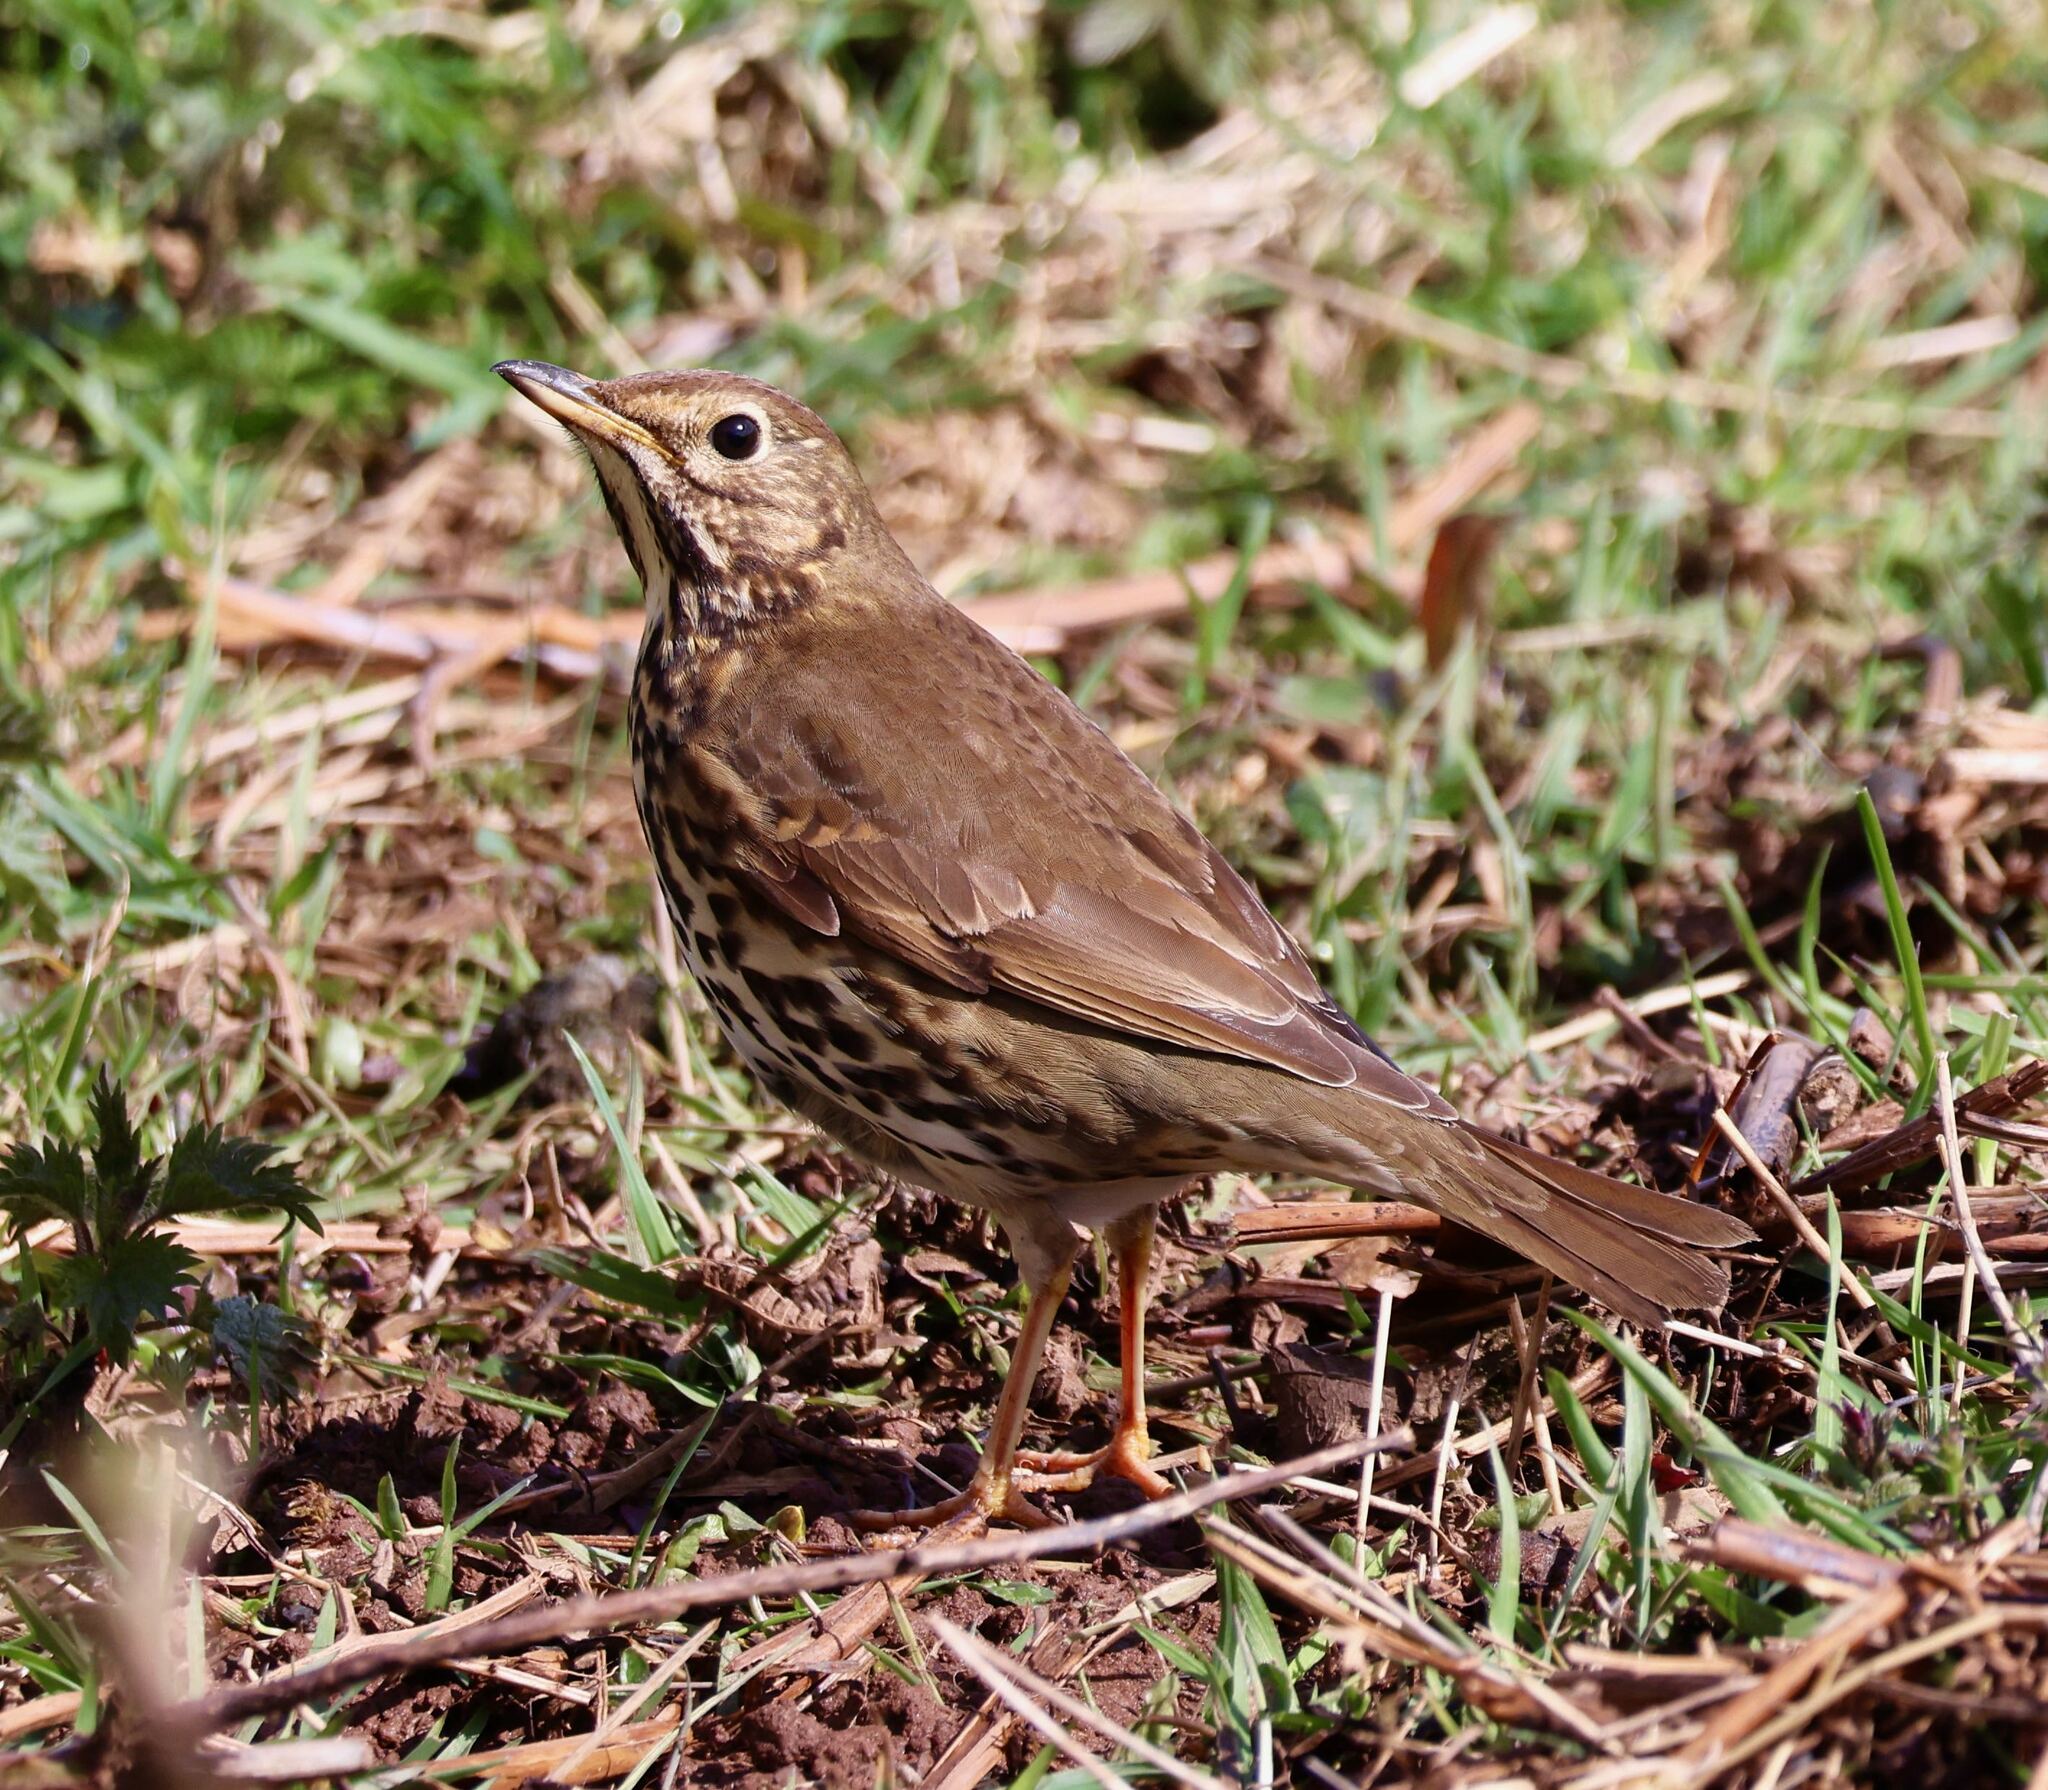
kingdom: Animalia
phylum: Chordata
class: Aves
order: Passeriformes
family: Turdidae
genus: Turdus
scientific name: Turdus philomelos
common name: Song thrush
